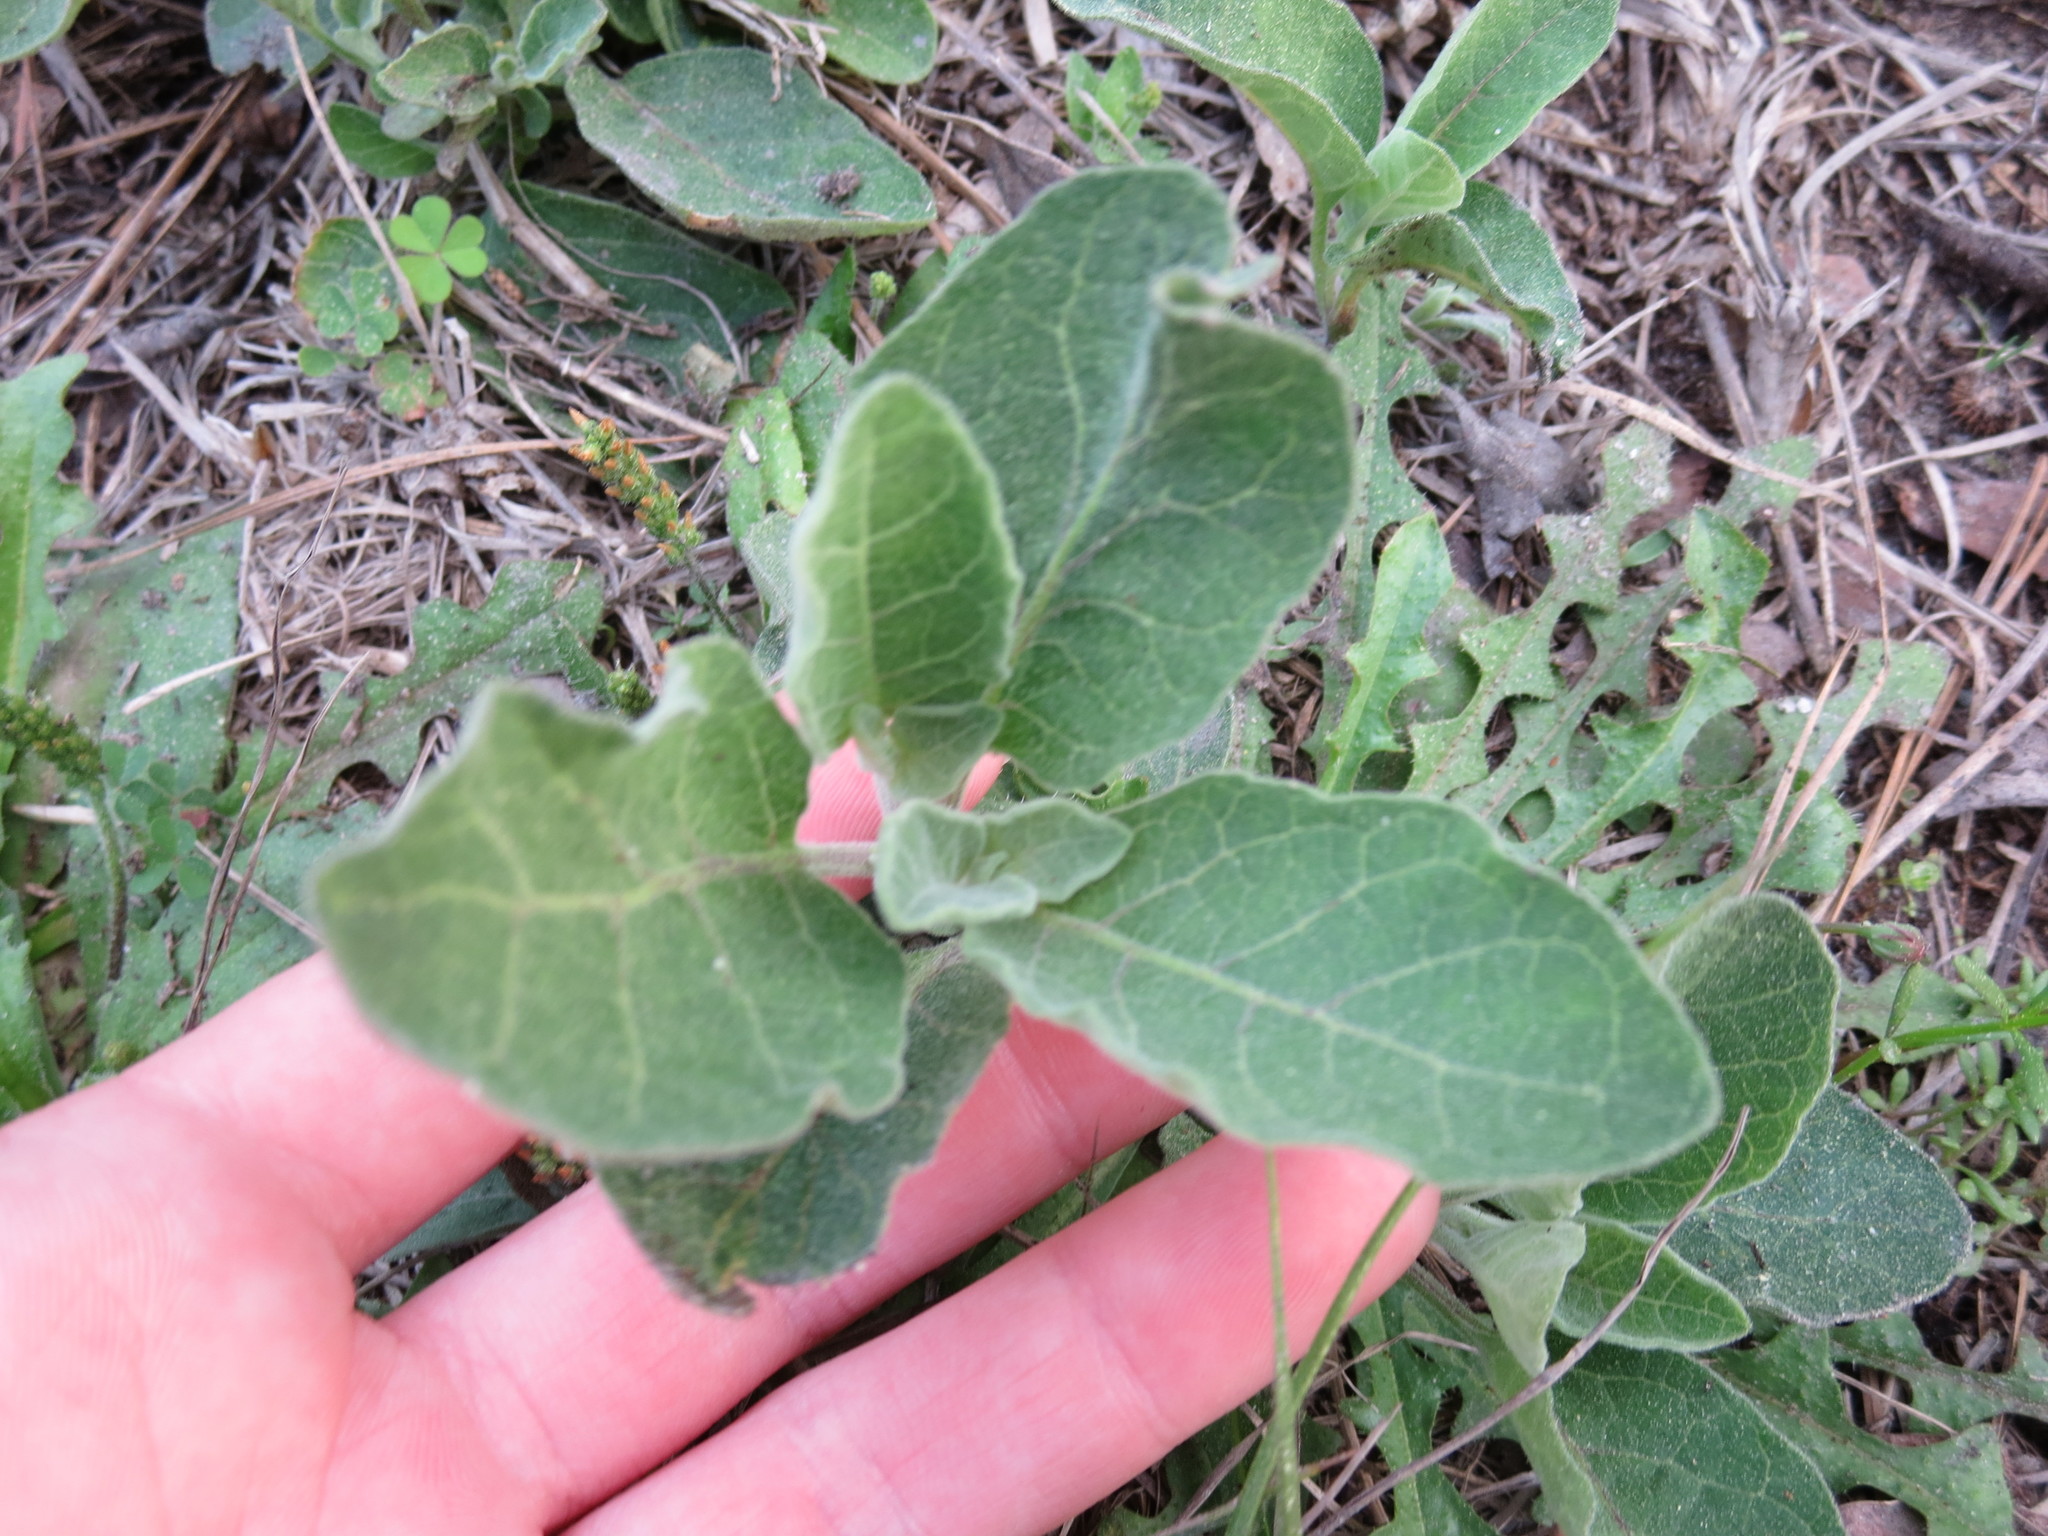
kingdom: Plantae
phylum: Tracheophyta
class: Magnoliopsida
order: Solanales
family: Solanaceae
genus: Physalis
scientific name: Physalis walteri
